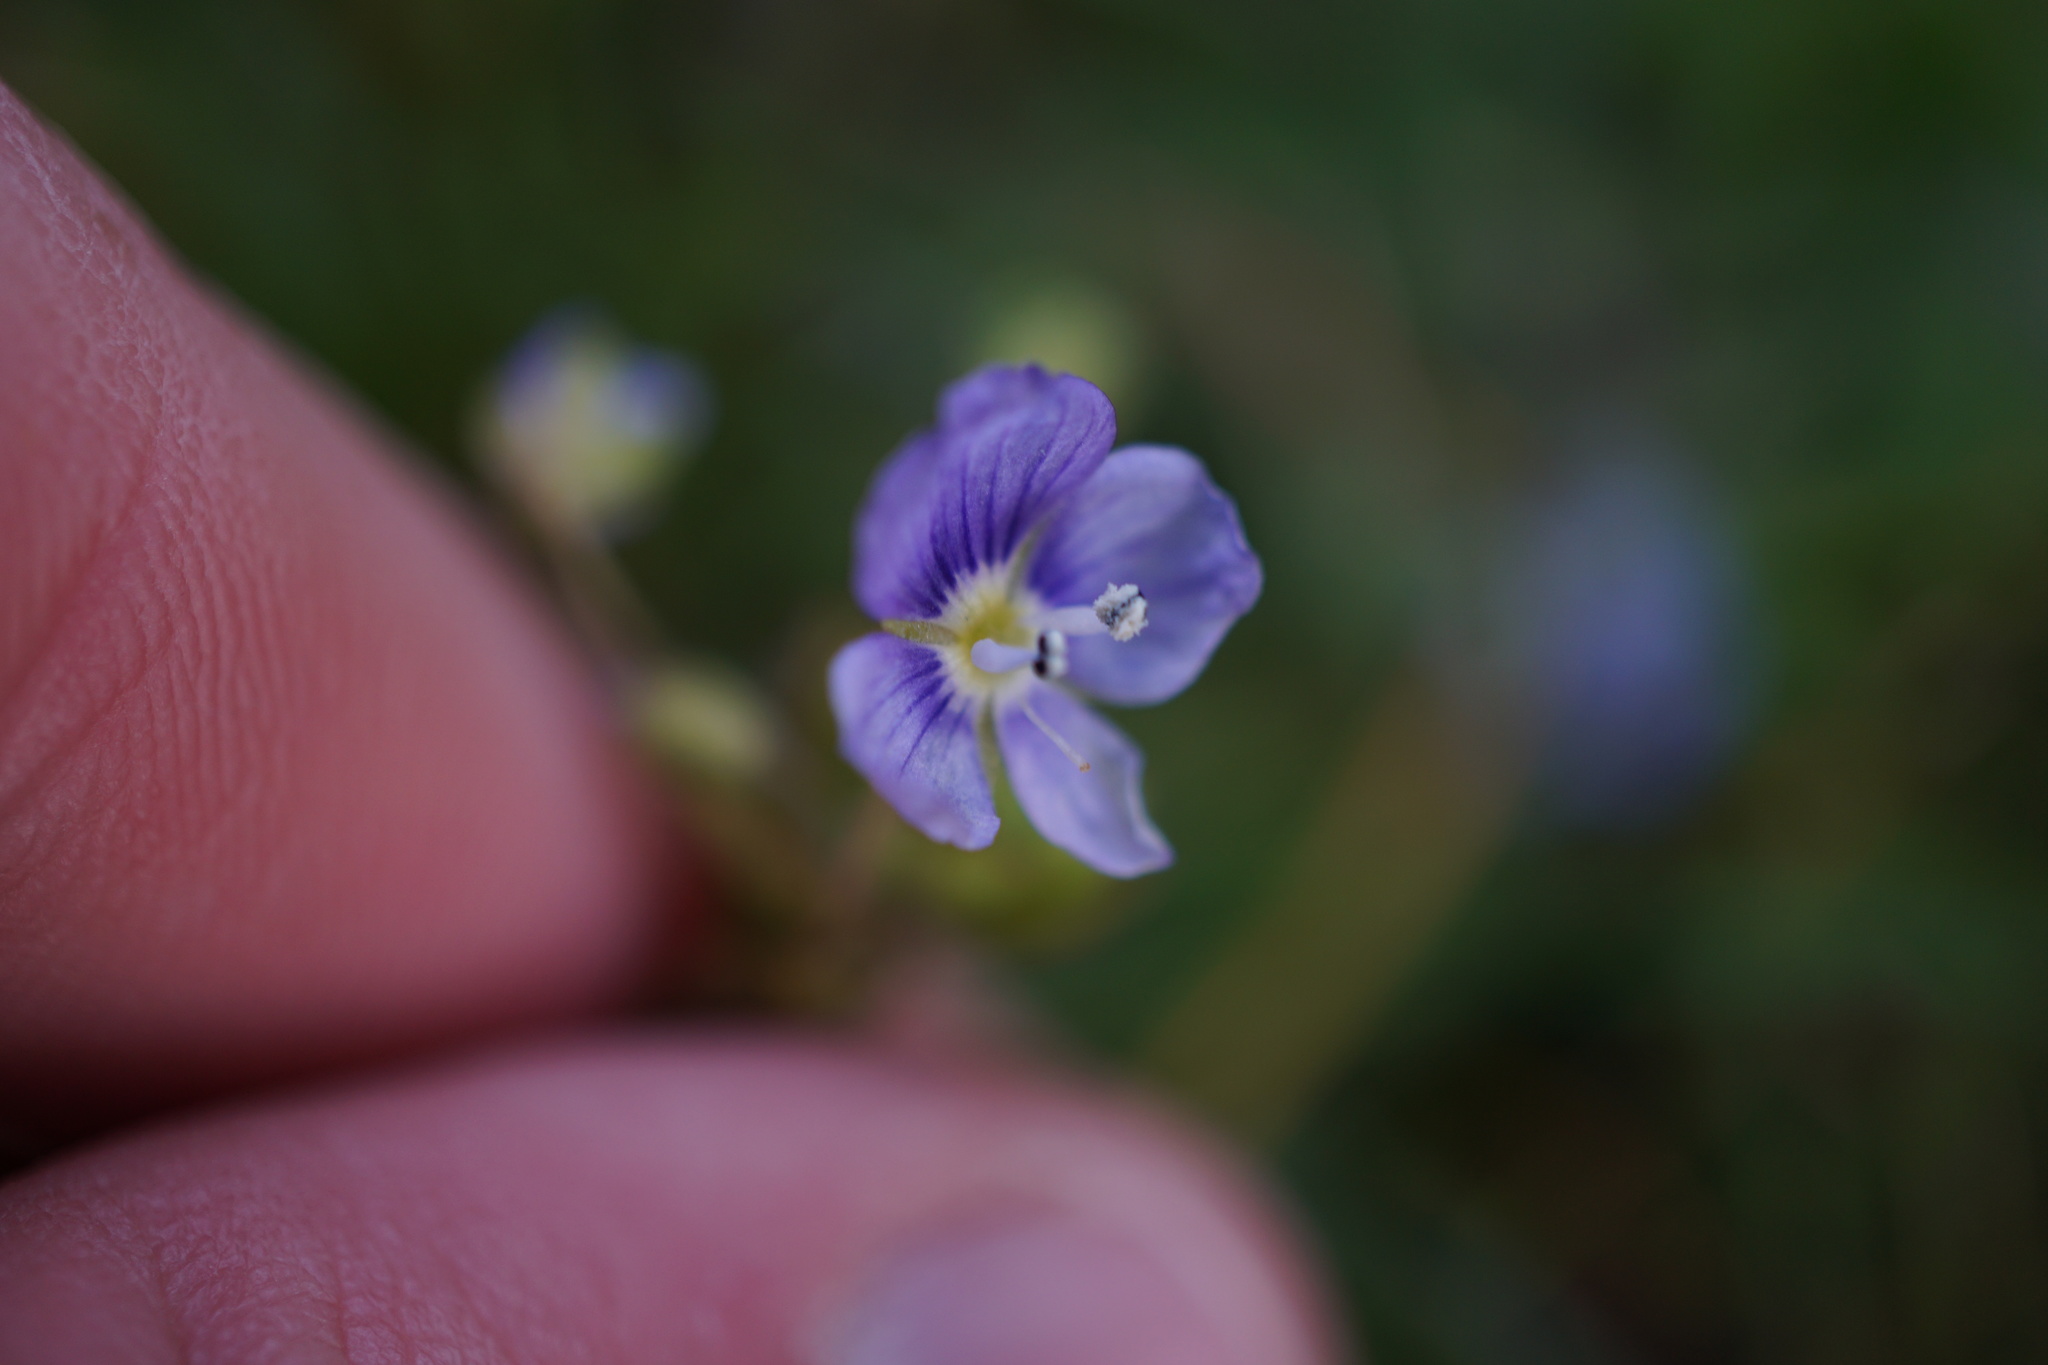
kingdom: Plantae
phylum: Tracheophyta
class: Magnoliopsida
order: Lamiales
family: Plantaginaceae
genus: Veronica
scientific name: Veronica filiformis
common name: Slender speedwell
